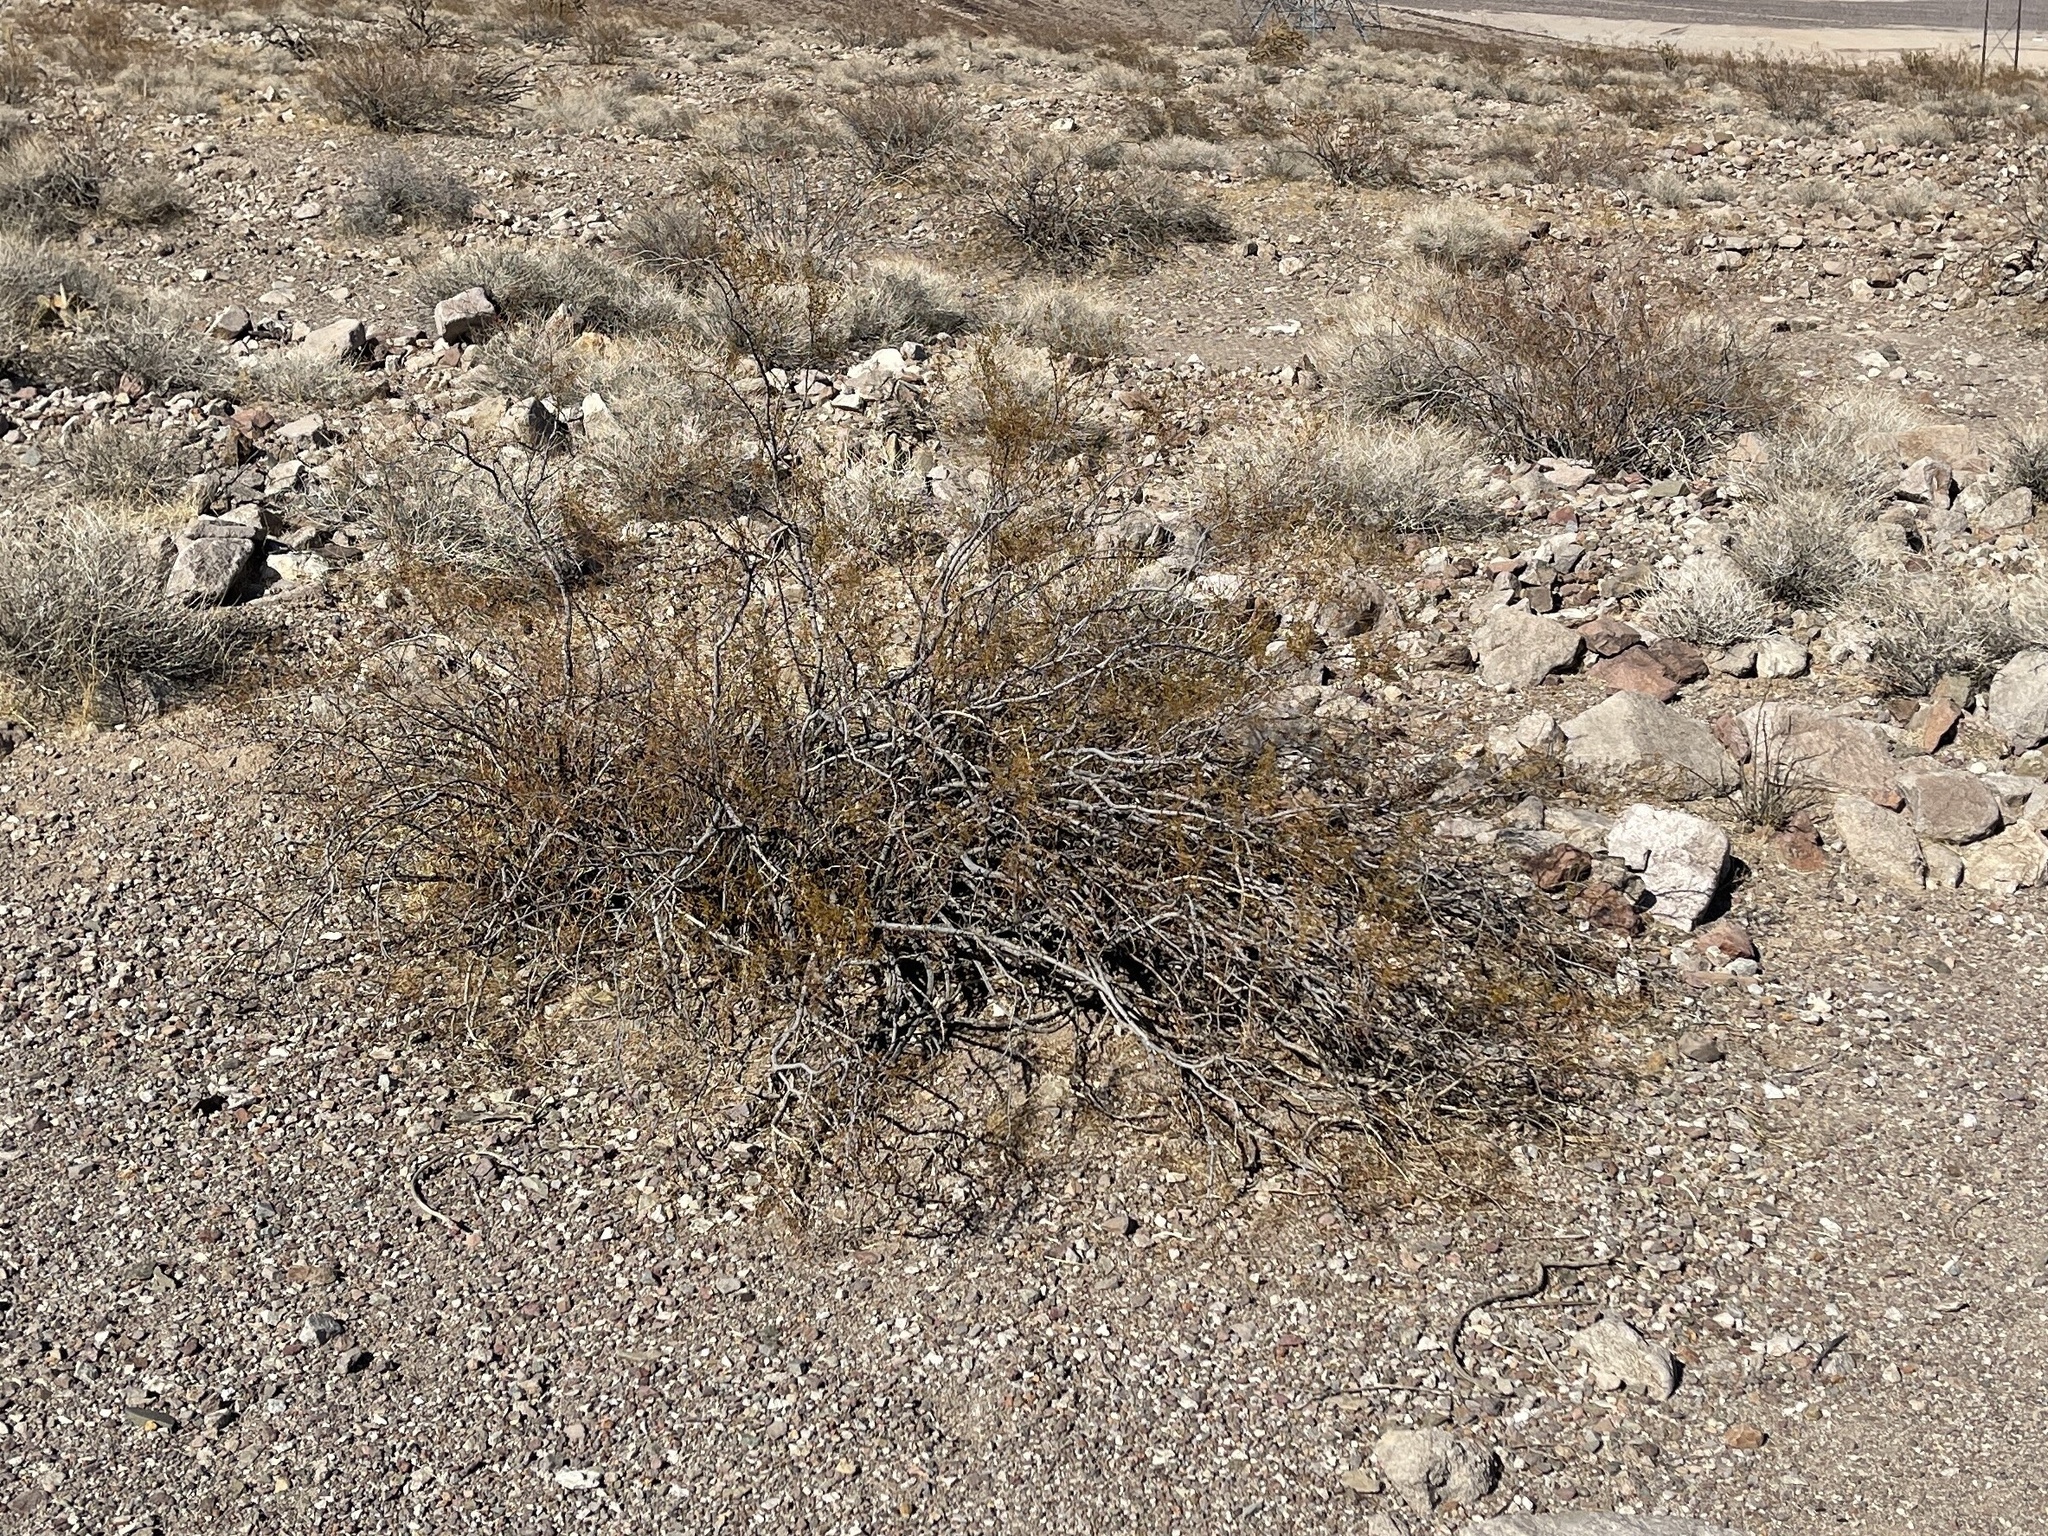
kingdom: Plantae
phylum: Tracheophyta
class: Magnoliopsida
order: Zygophyllales
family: Zygophyllaceae
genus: Larrea
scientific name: Larrea tridentata
